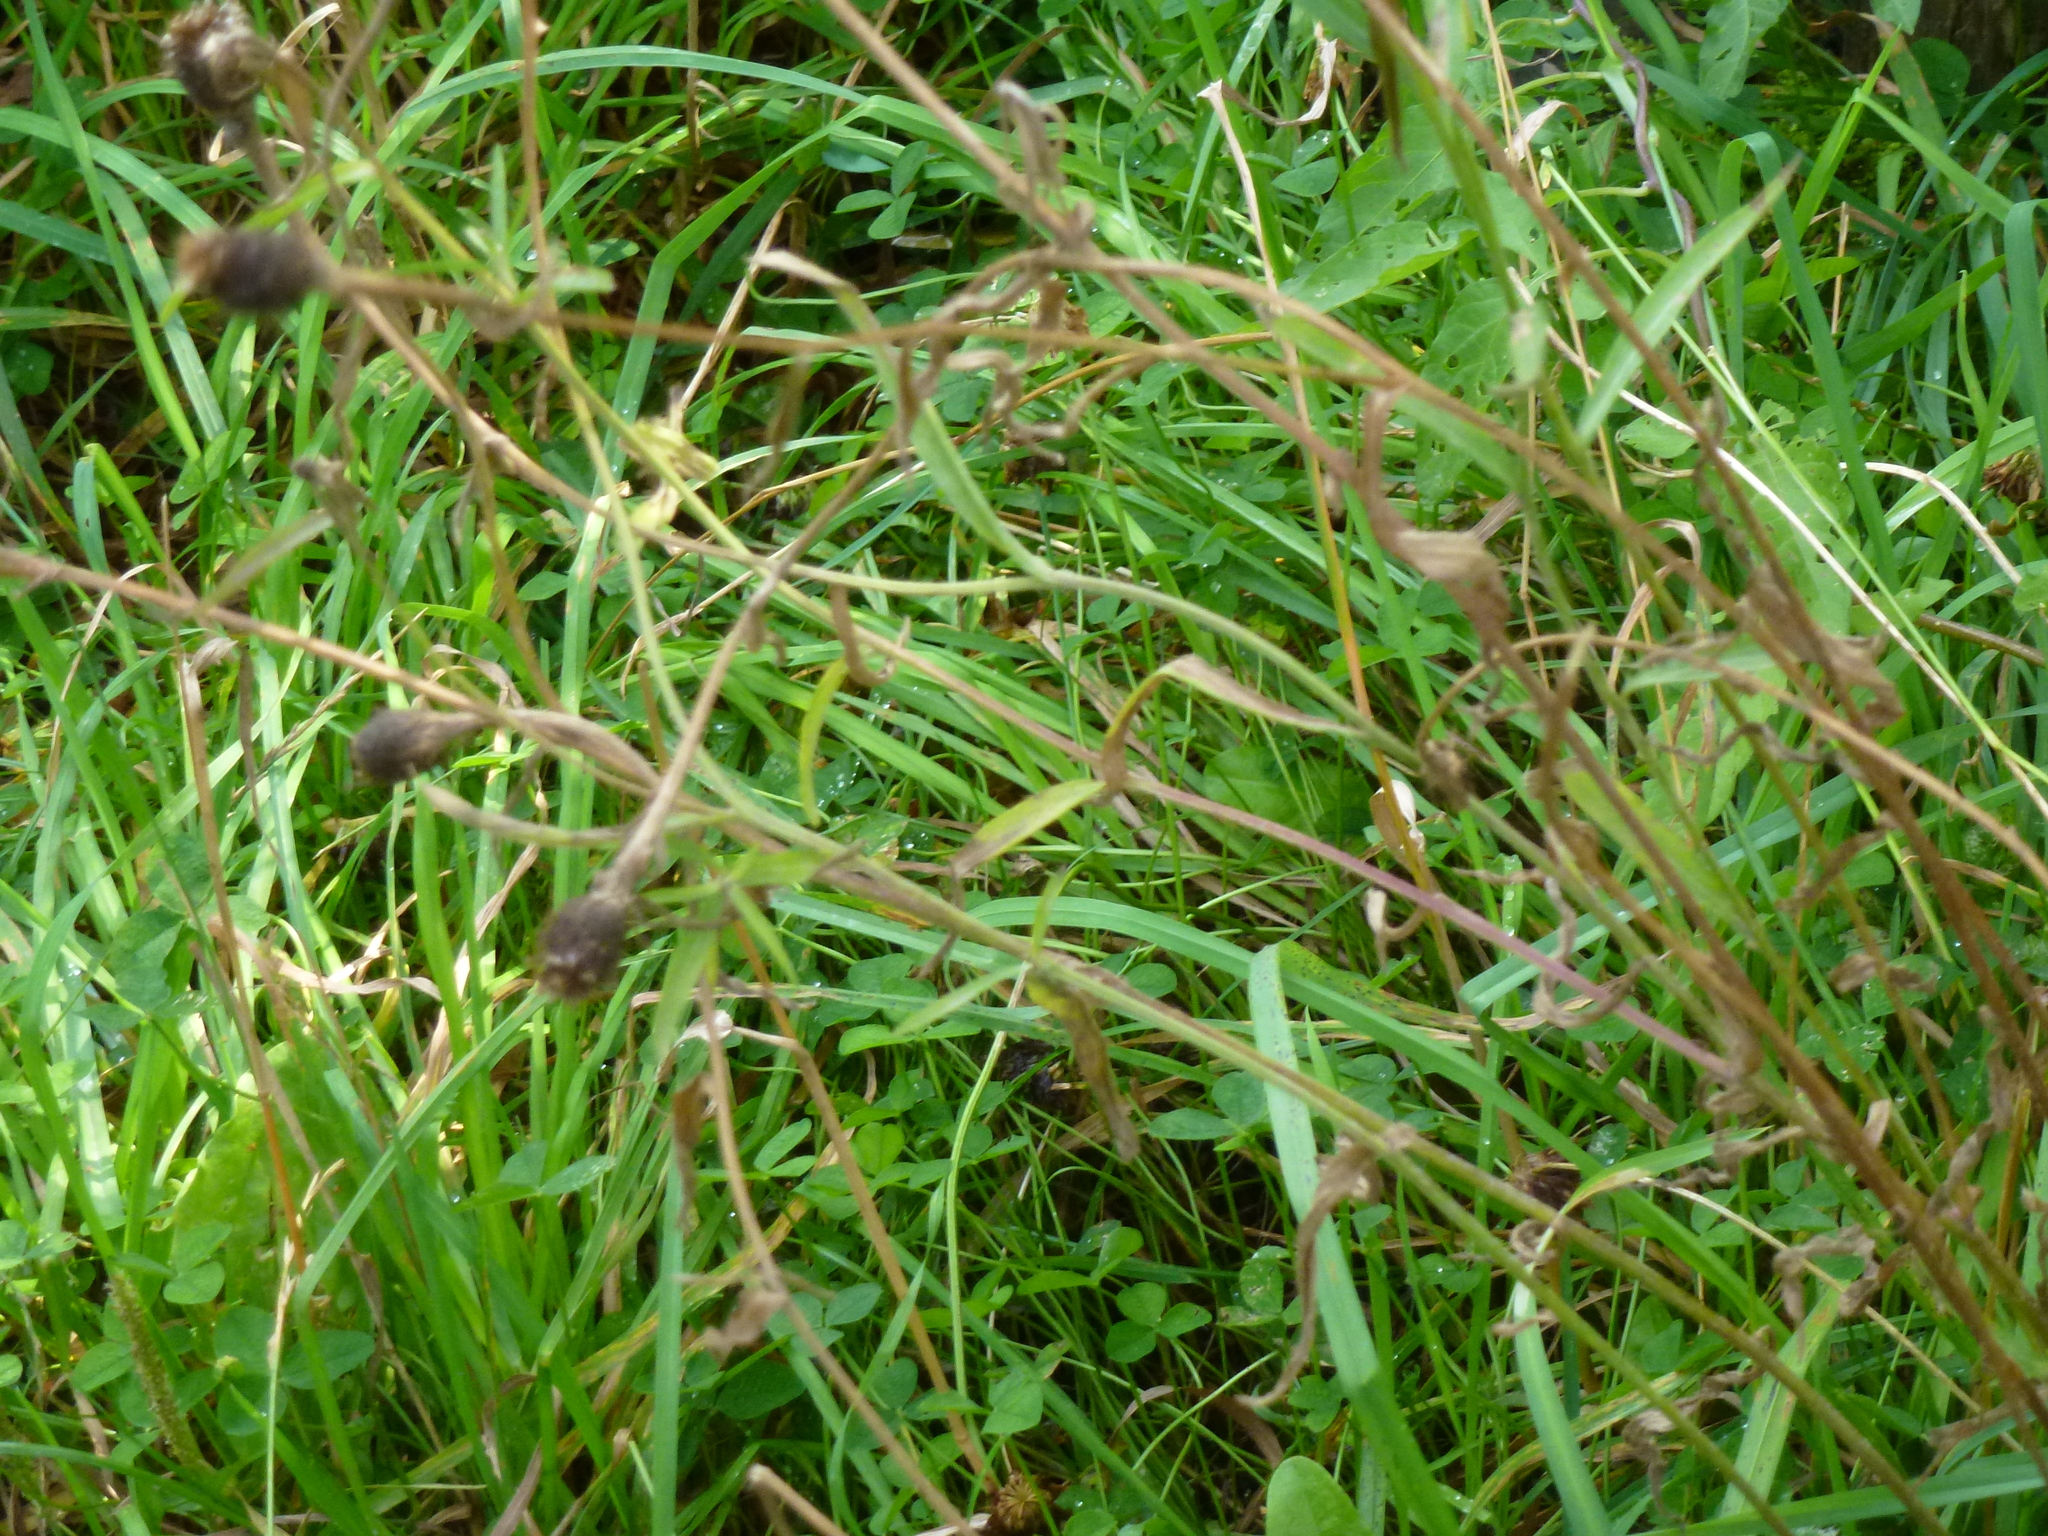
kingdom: Plantae
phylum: Tracheophyta
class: Magnoliopsida
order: Asterales
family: Asteraceae
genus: Centaurea
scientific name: Centaurea nigra
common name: Lesser knapweed
